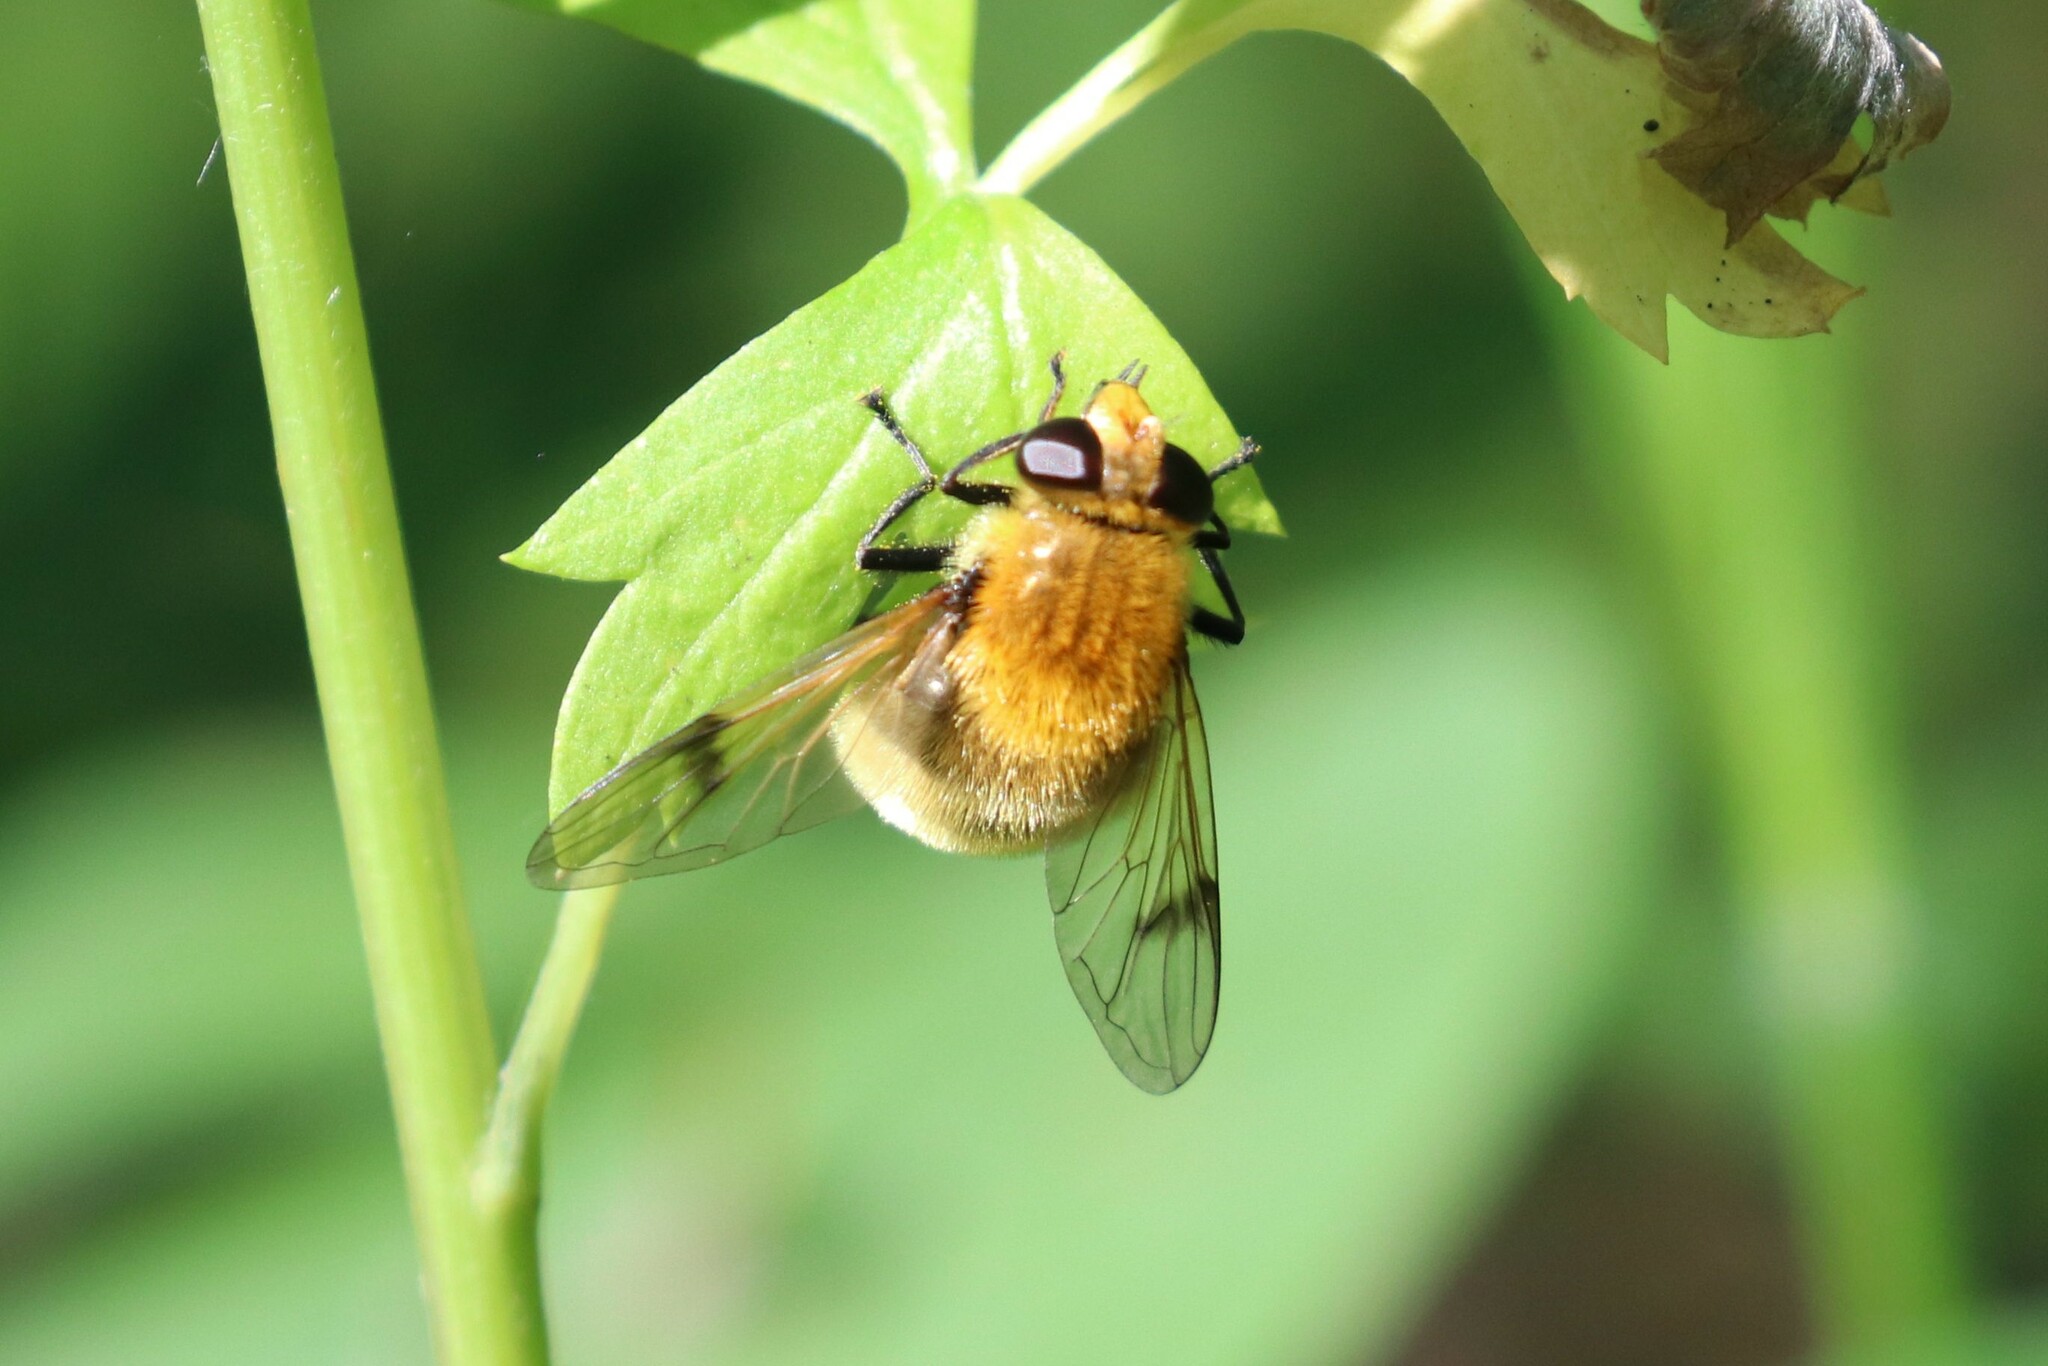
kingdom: Animalia
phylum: Arthropoda
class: Insecta
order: Diptera
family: Syrphidae
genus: Sericomyia
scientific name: Sericomyia superbiens
